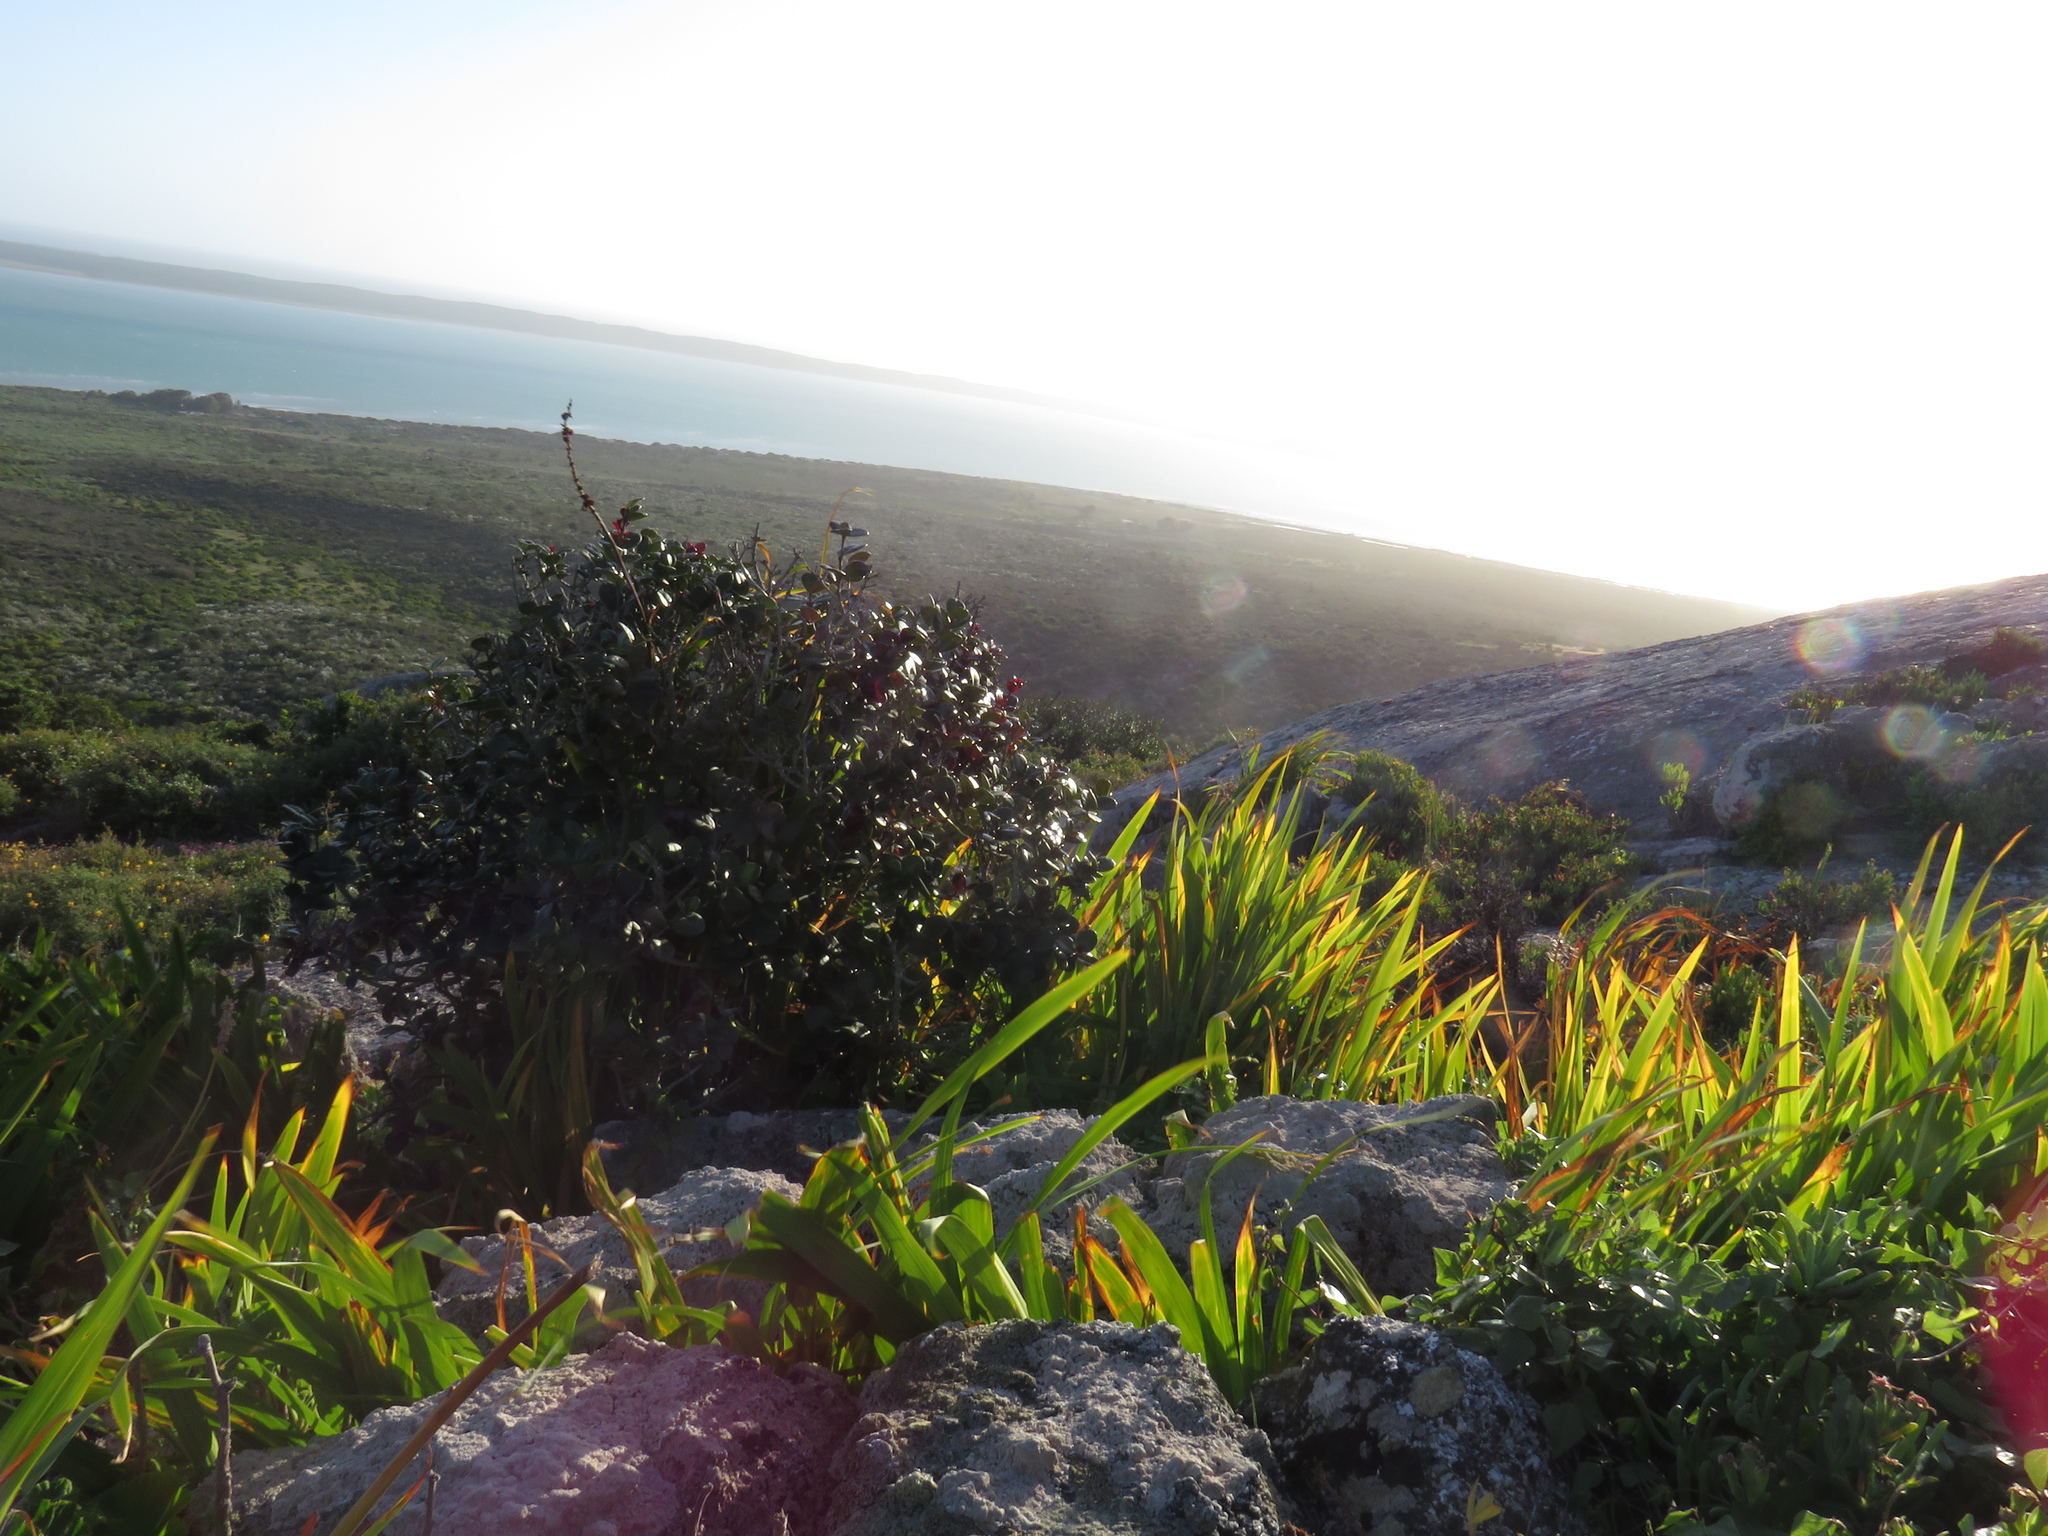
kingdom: Plantae
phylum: Tracheophyta
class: Magnoliopsida
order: Celastrales
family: Celastraceae
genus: Maurocenia
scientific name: Maurocenia frangula
